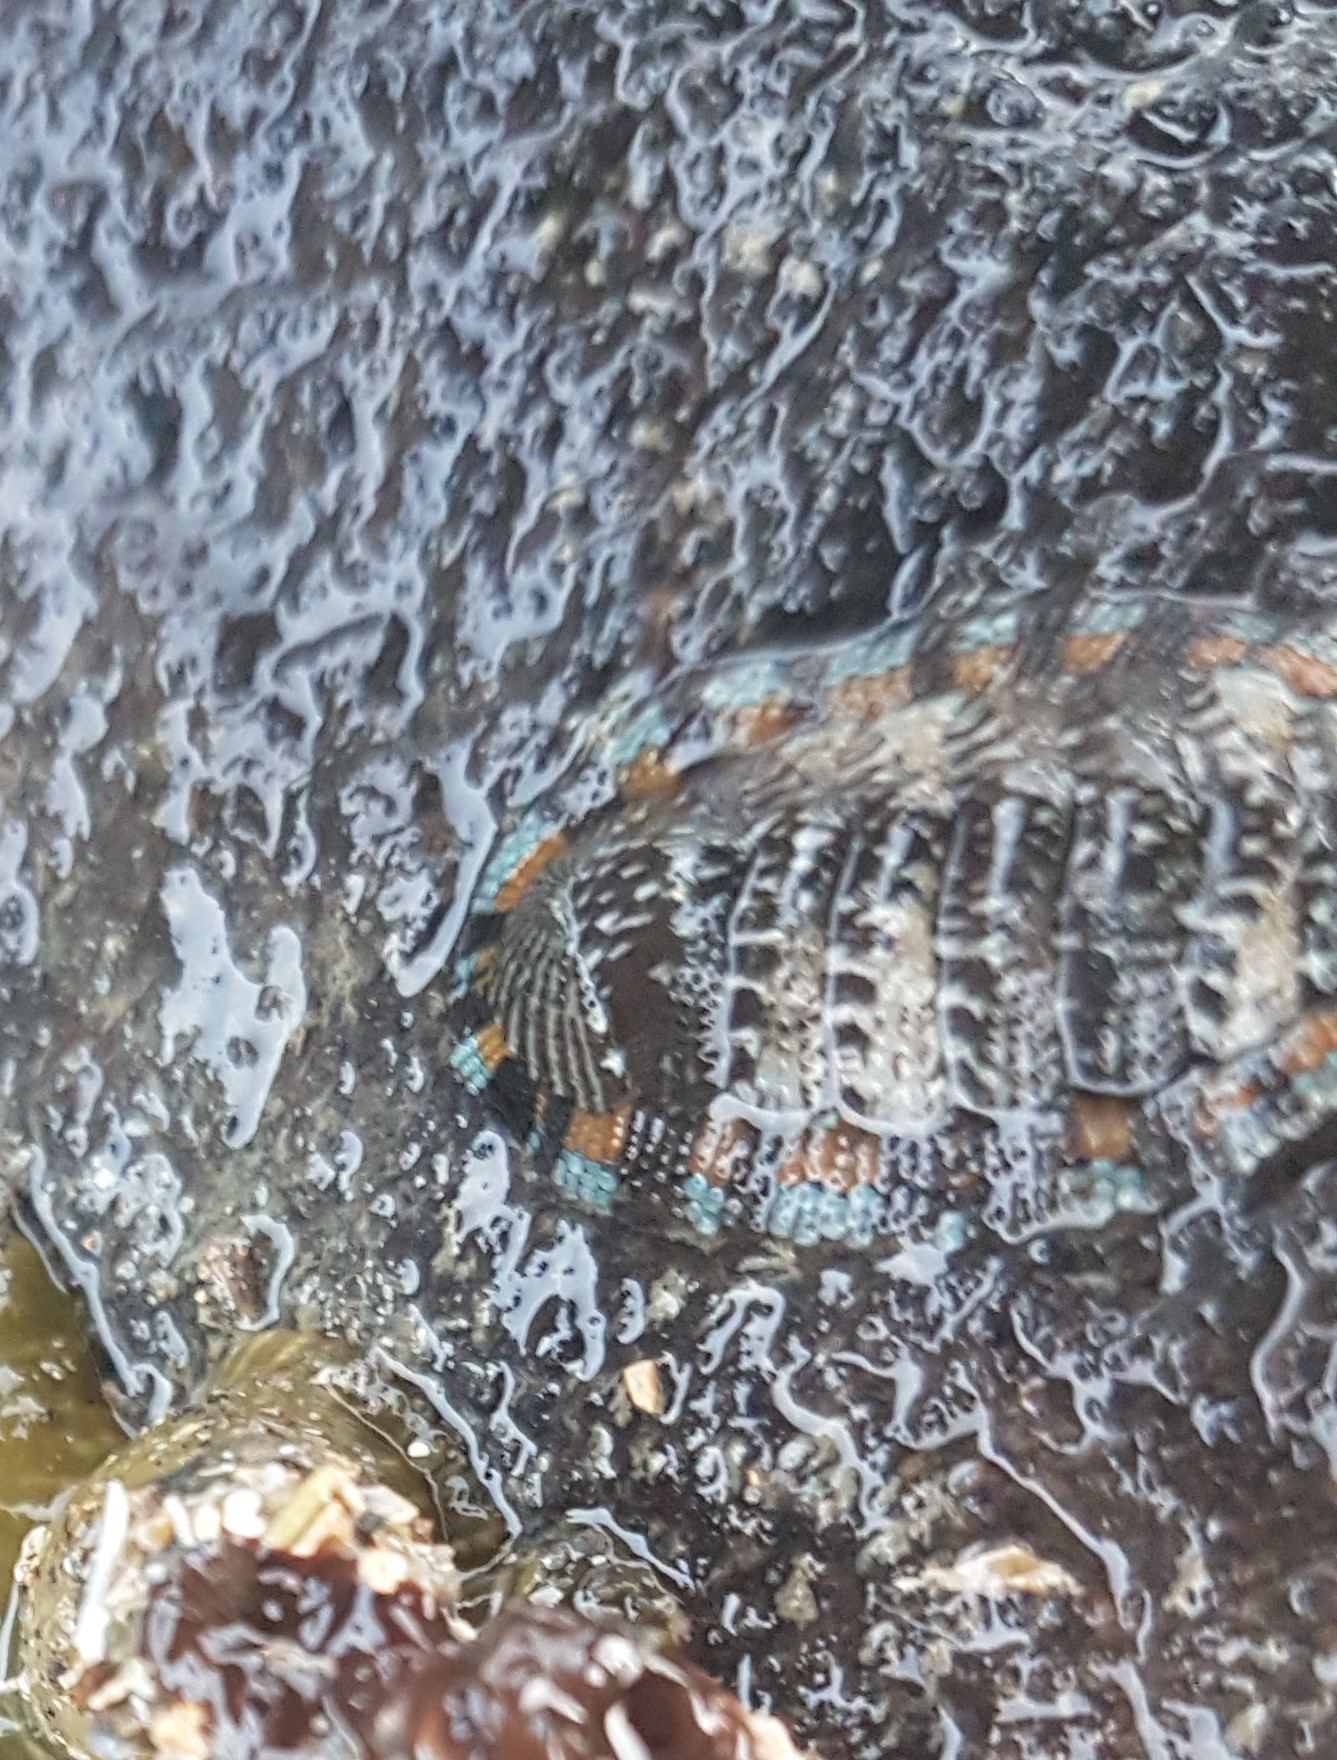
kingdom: Animalia
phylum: Mollusca
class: Polyplacophora
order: Chitonida
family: Chitonidae
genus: Sypharochiton
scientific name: Sypharochiton sinclairi
